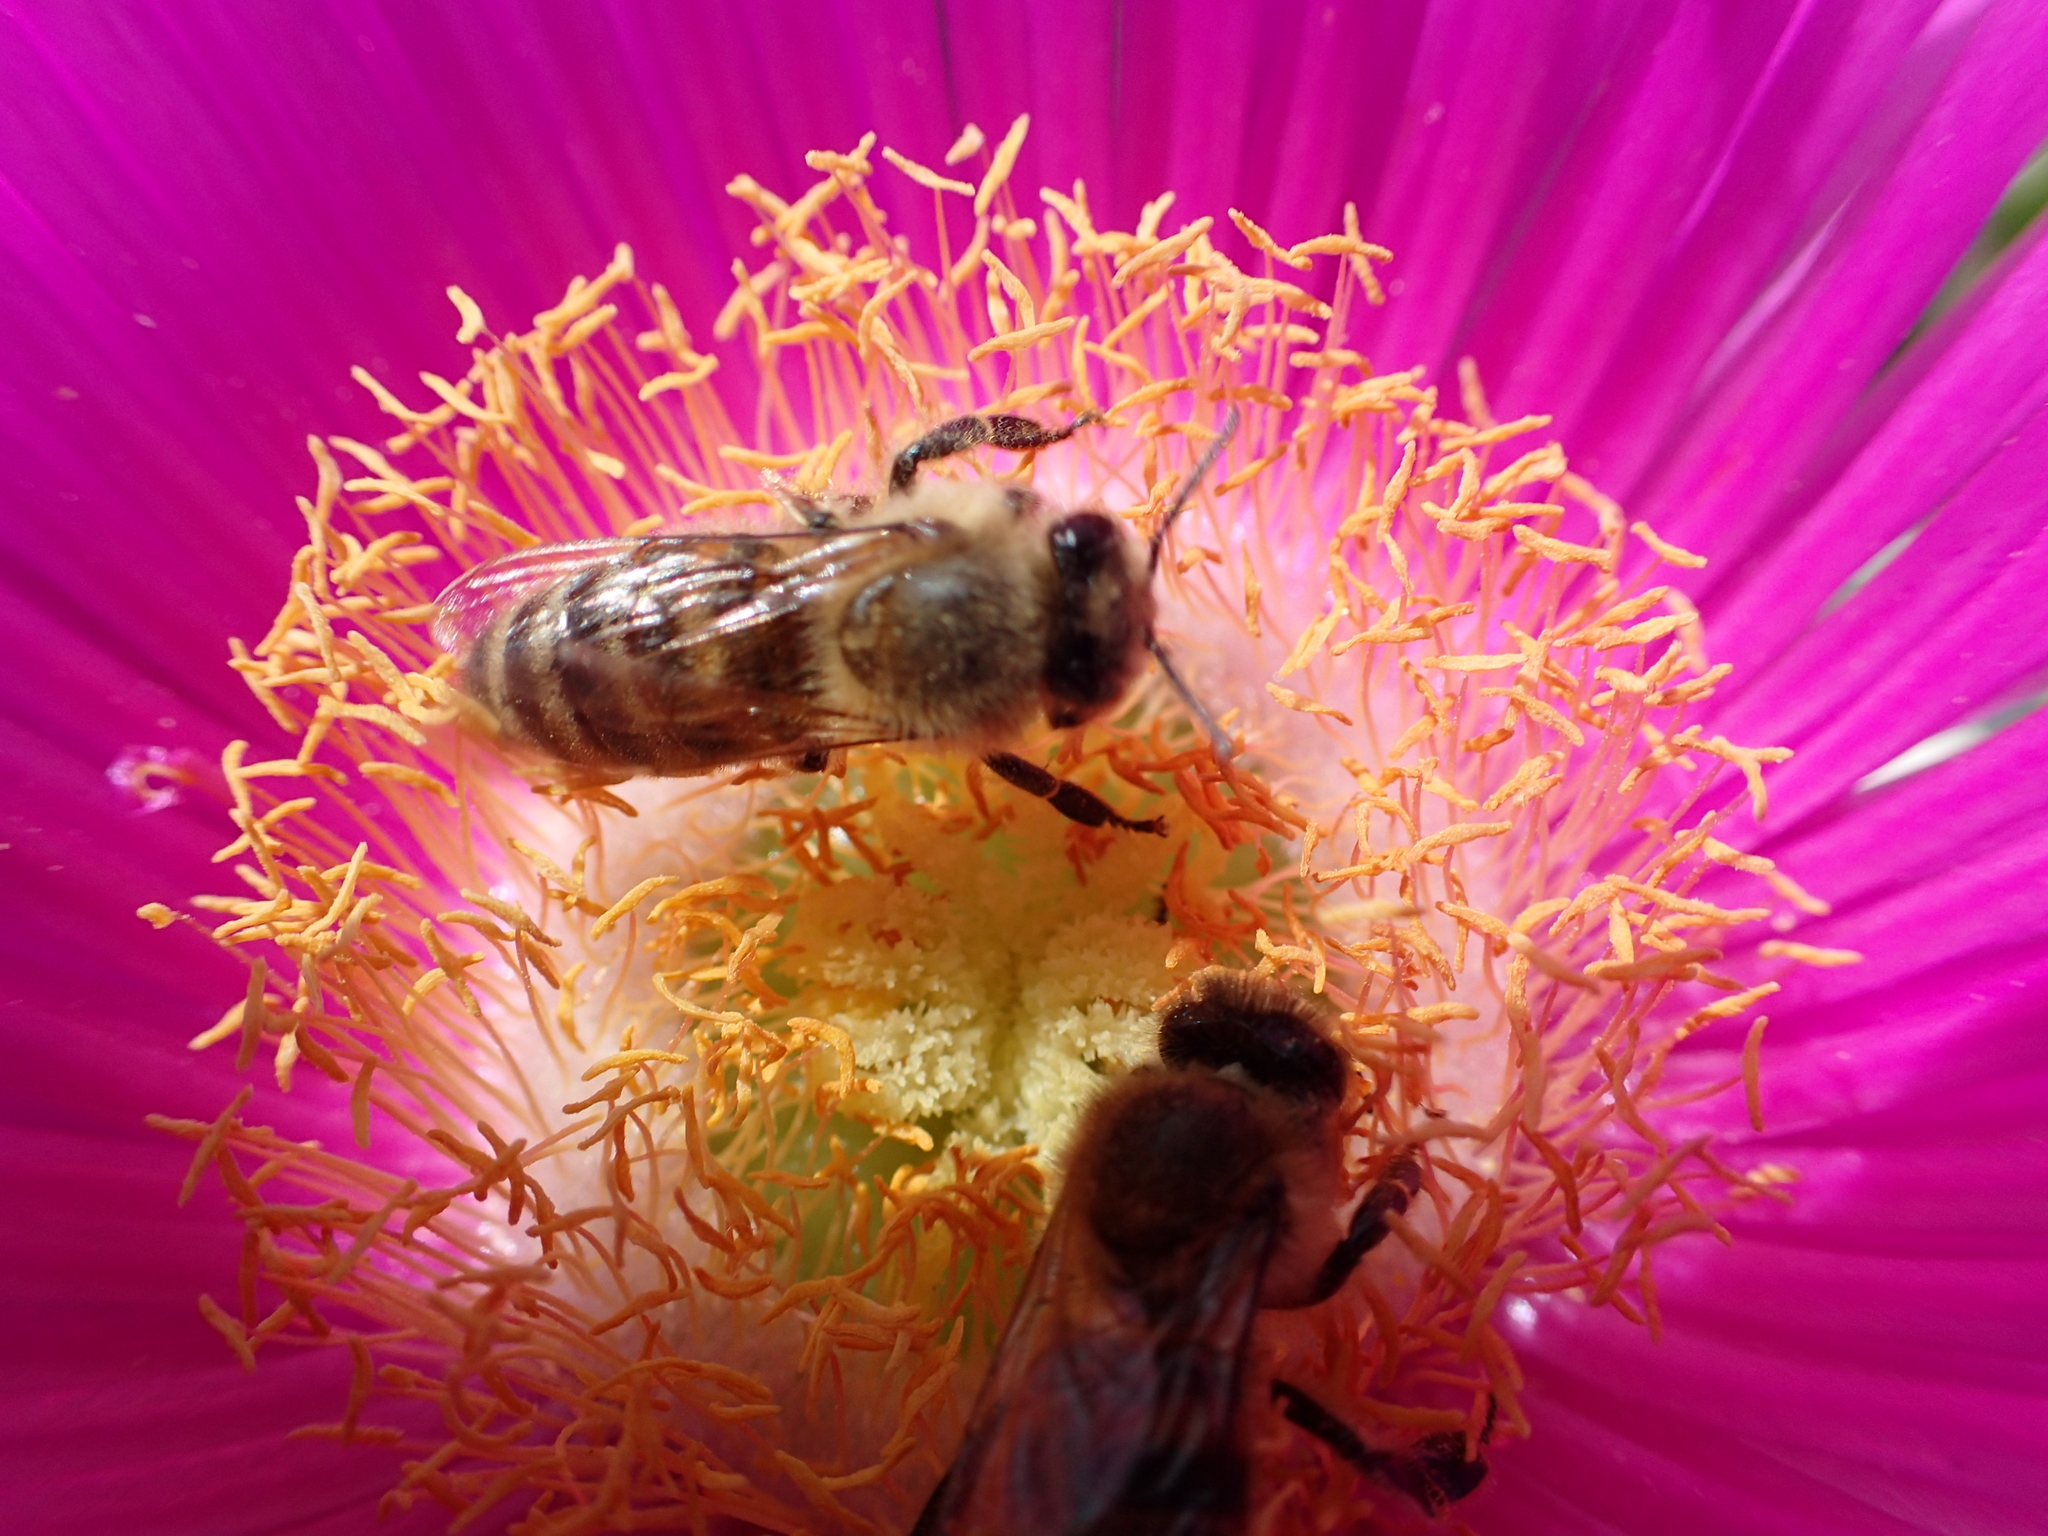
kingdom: Animalia
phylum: Arthropoda
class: Insecta
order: Hymenoptera
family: Apidae
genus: Apis
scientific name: Apis mellifera
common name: Honey bee
